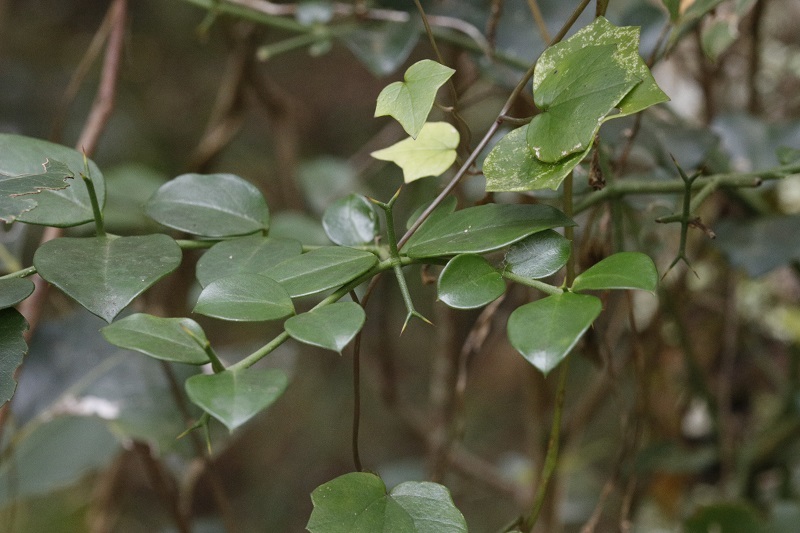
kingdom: Plantae
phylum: Tracheophyta
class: Magnoliopsida
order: Gentianales
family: Apocynaceae
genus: Carissa
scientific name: Carissa bispinosa
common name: Forest num-num
